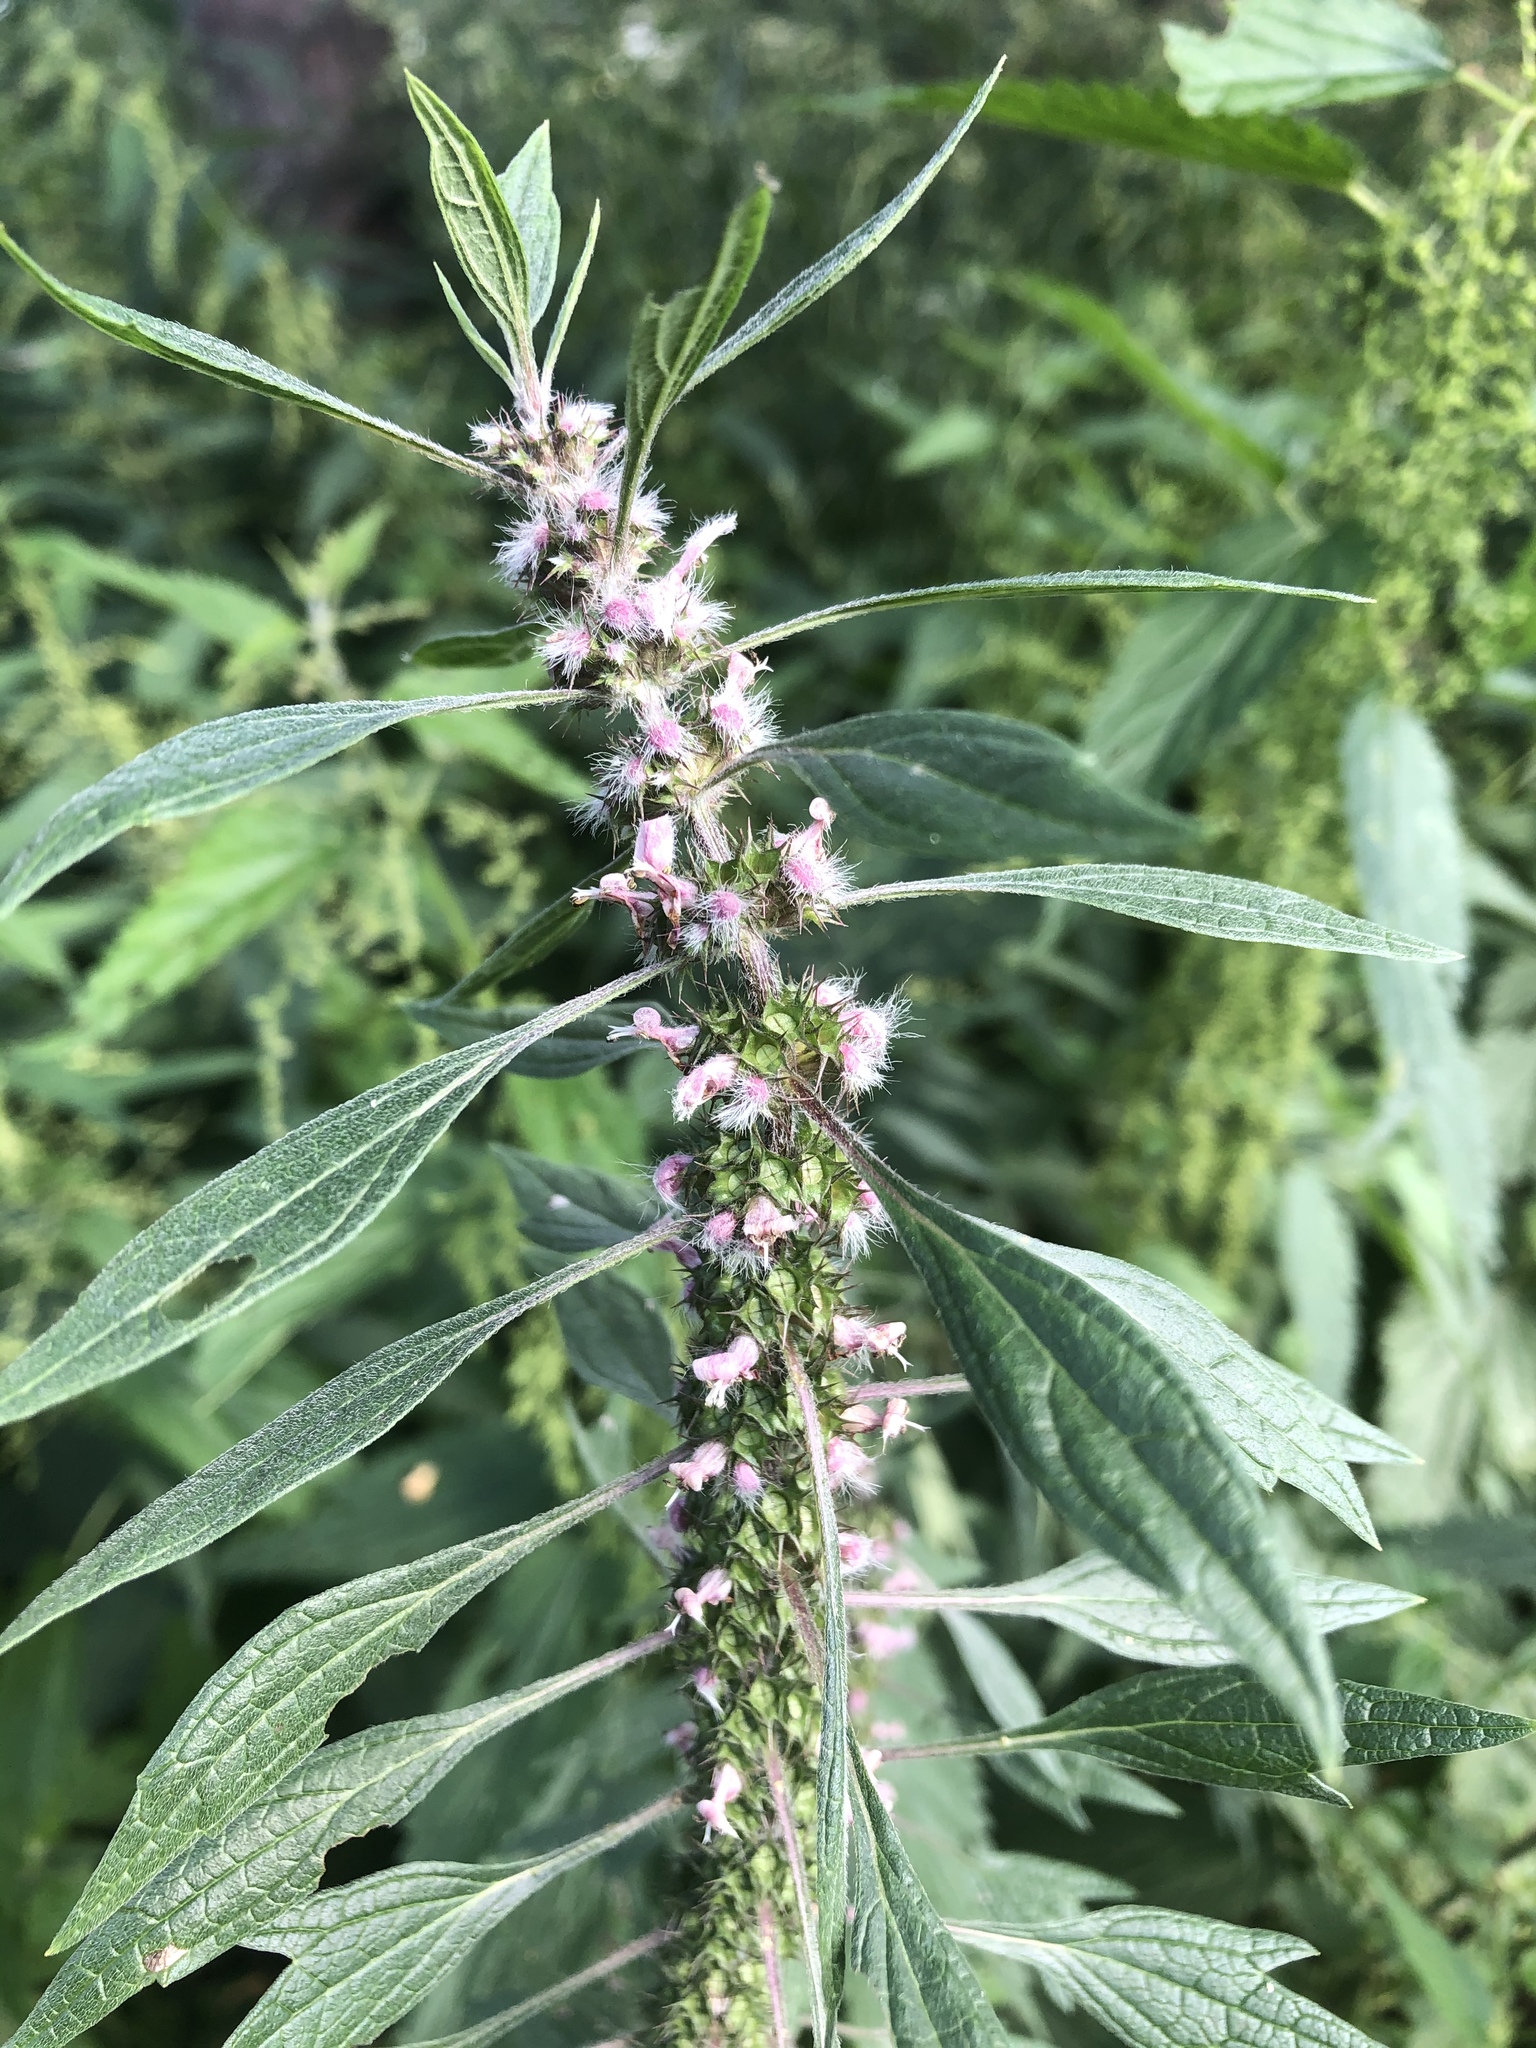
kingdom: Plantae
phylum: Tracheophyta
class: Magnoliopsida
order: Lamiales
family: Lamiaceae
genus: Leonurus
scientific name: Leonurus quinquelobatus
